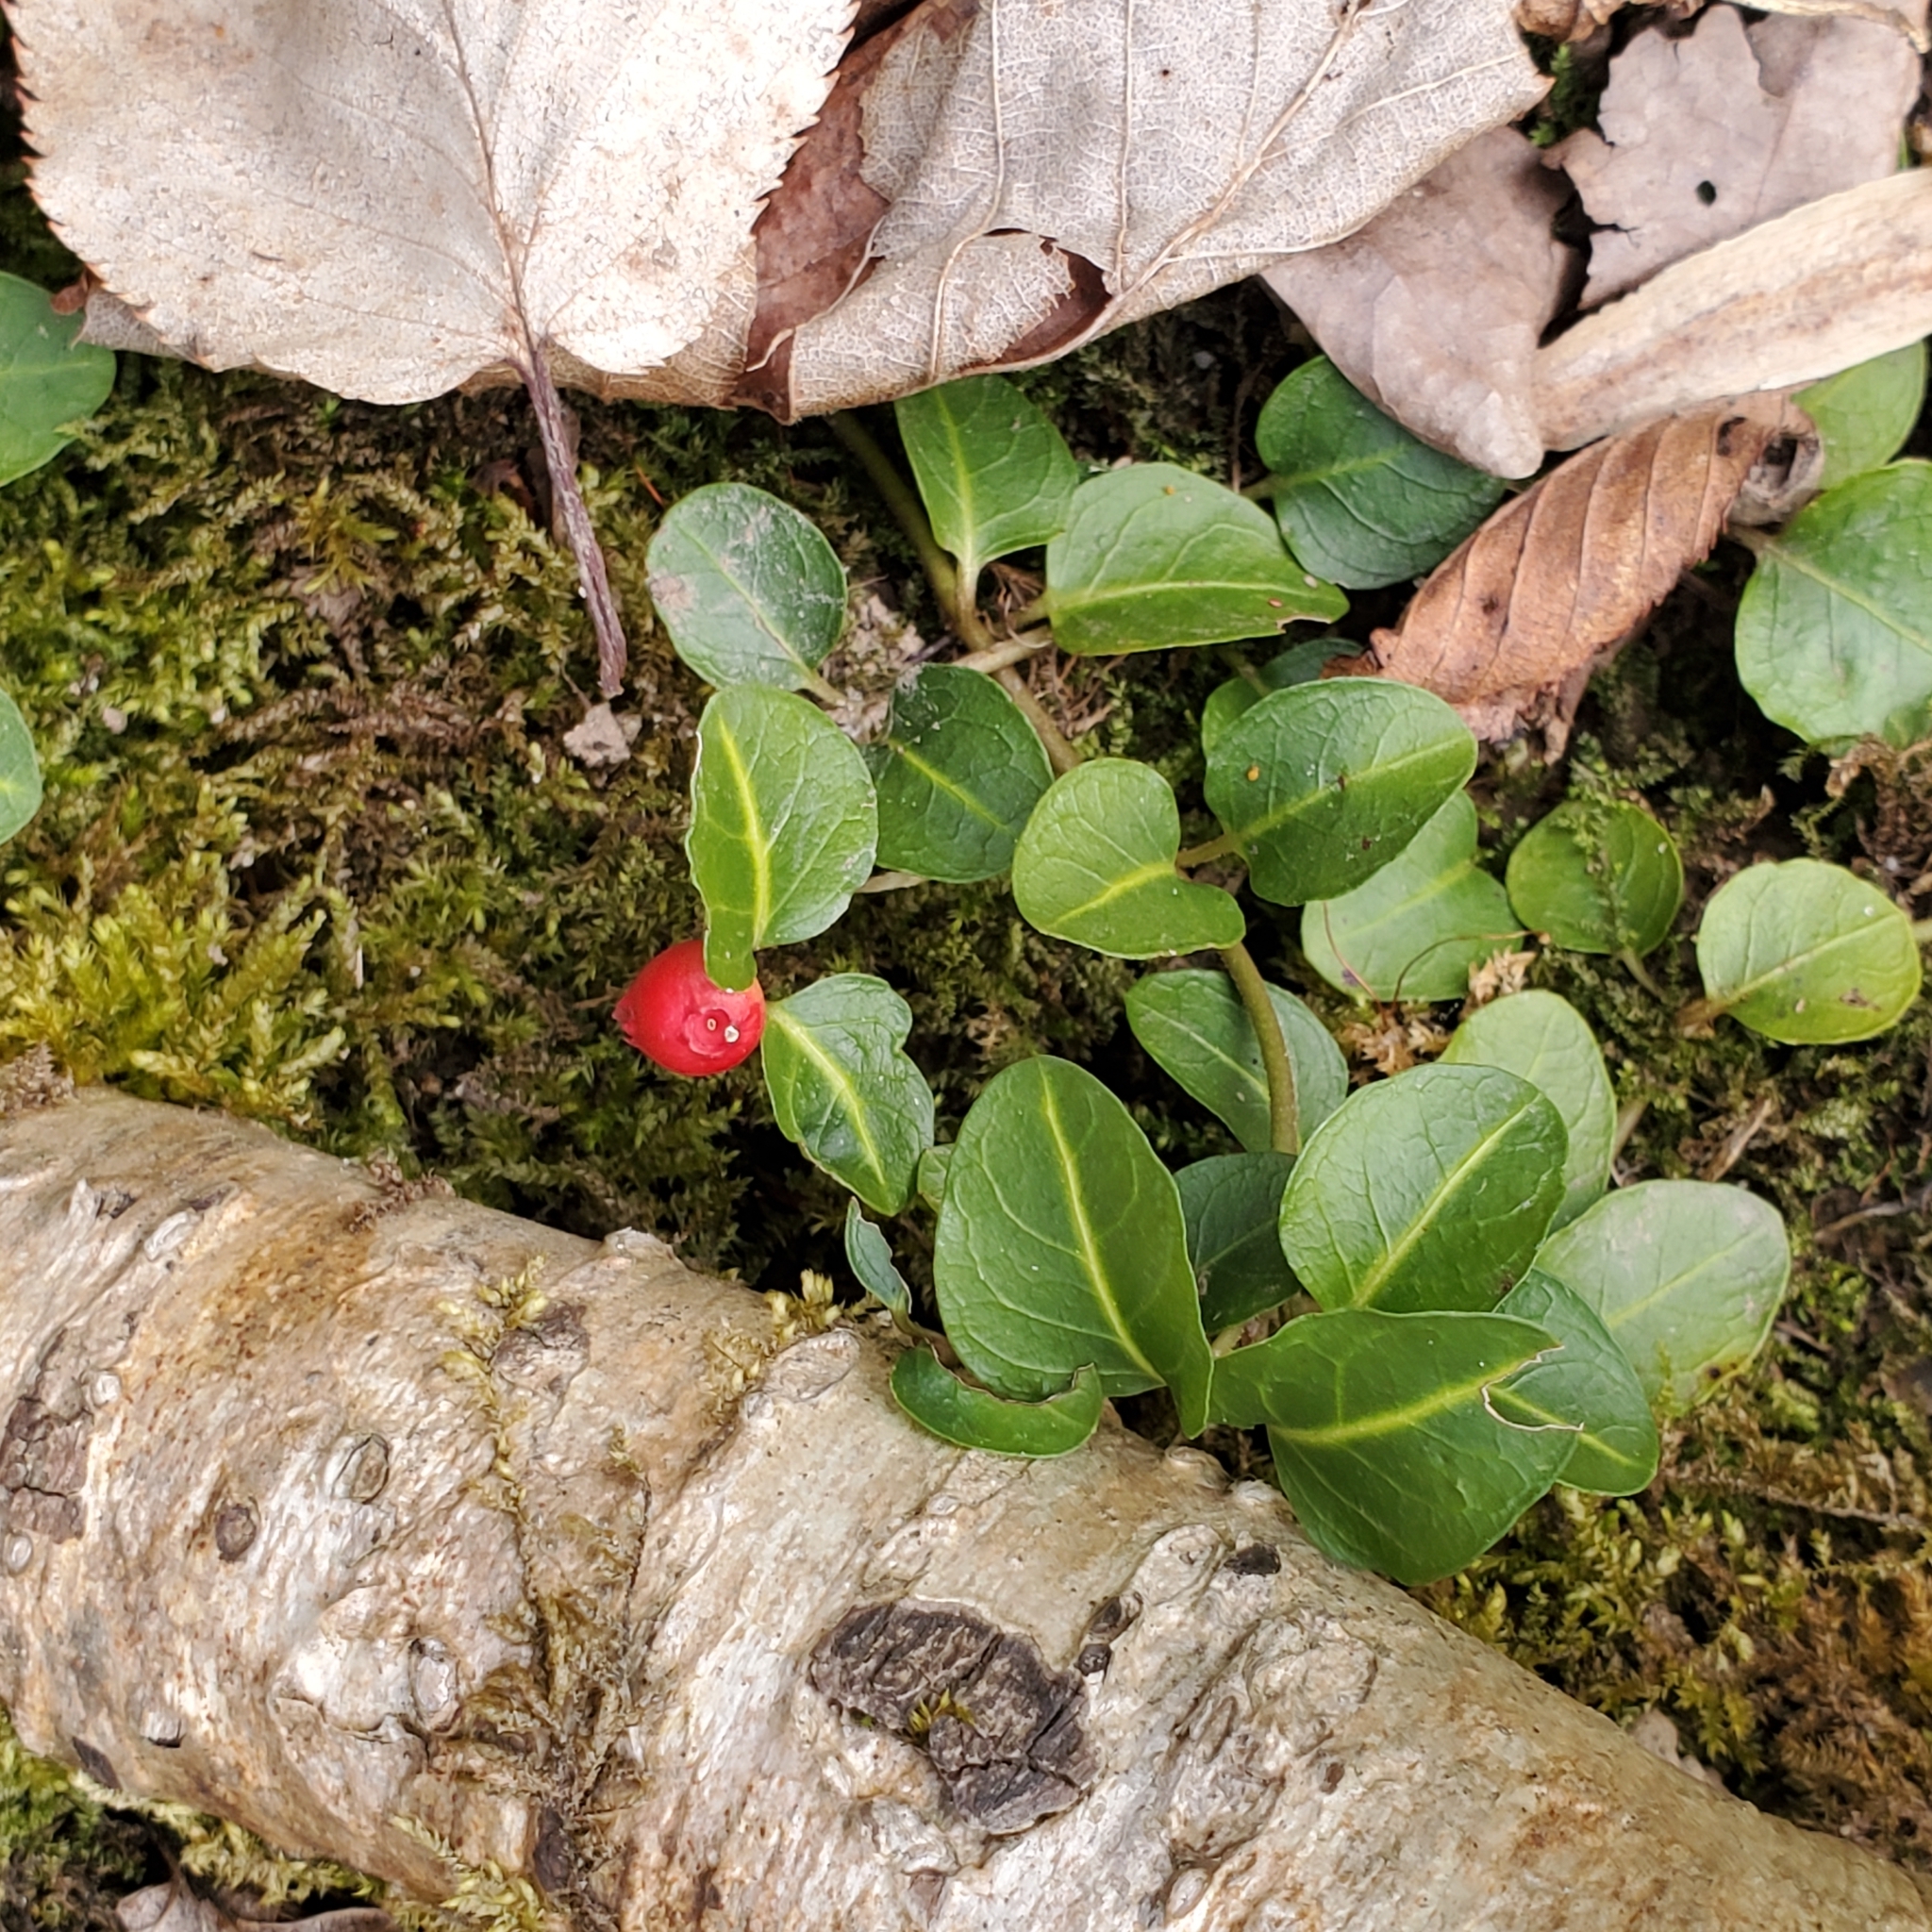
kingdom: Plantae
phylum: Tracheophyta
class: Magnoliopsida
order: Gentianales
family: Rubiaceae
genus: Mitchella
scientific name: Mitchella repens
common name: Partridge-berry
